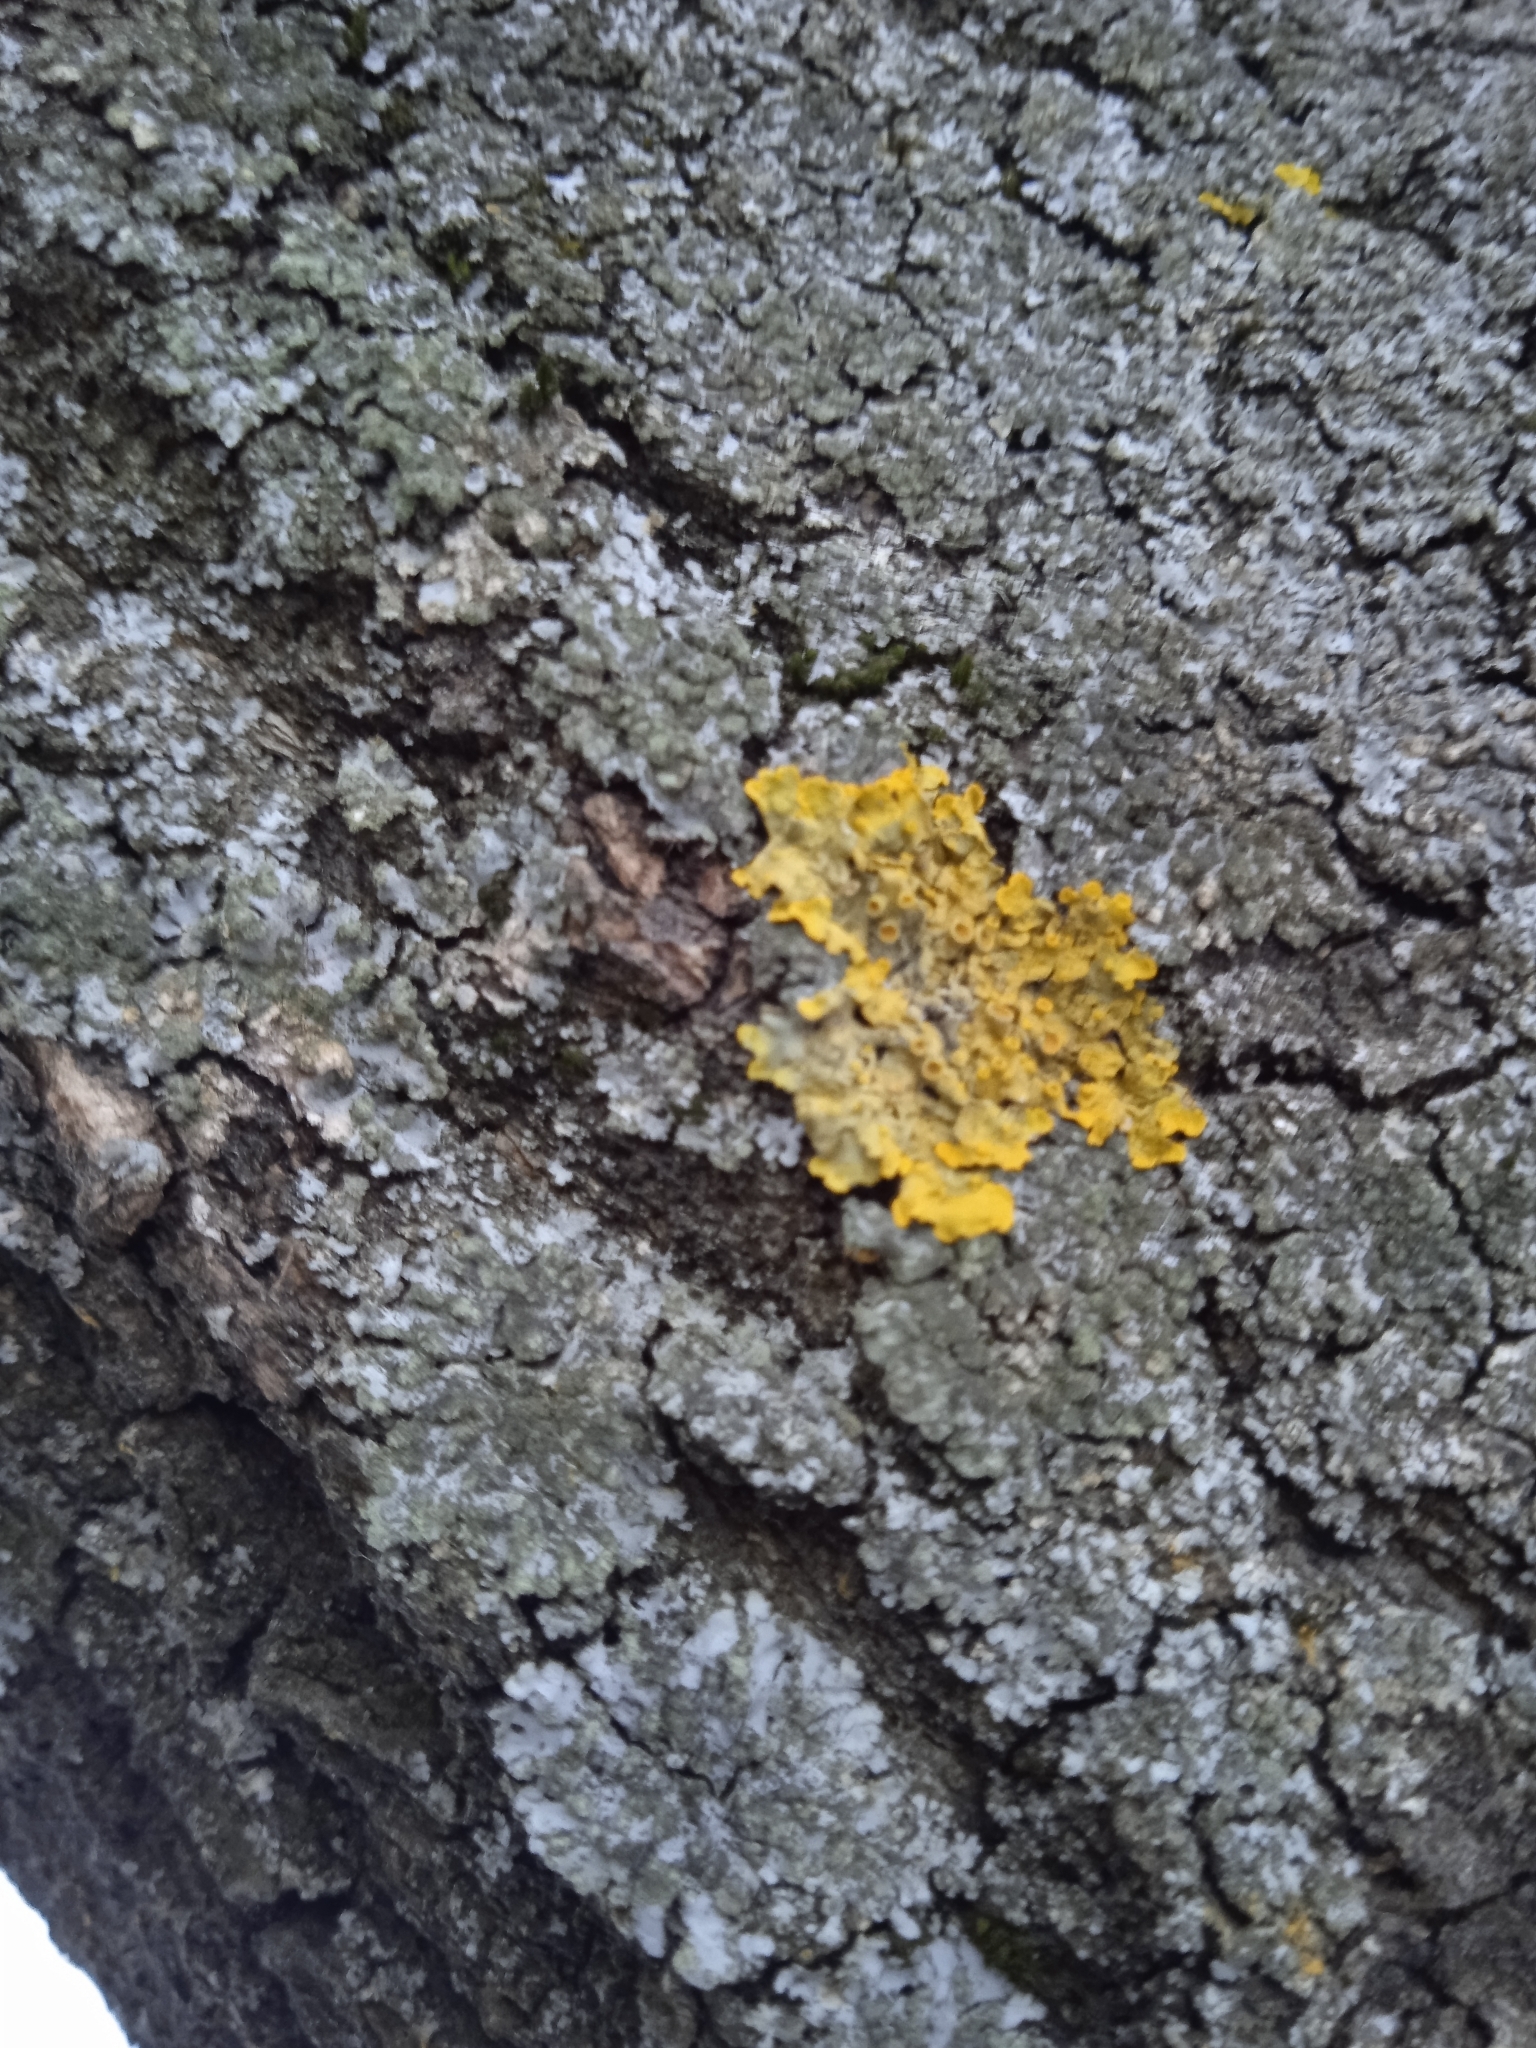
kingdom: Fungi
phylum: Ascomycota
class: Lecanoromycetes
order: Teloschistales
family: Teloschistaceae
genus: Xanthoria
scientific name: Xanthoria parietina
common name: Common orange lichen
